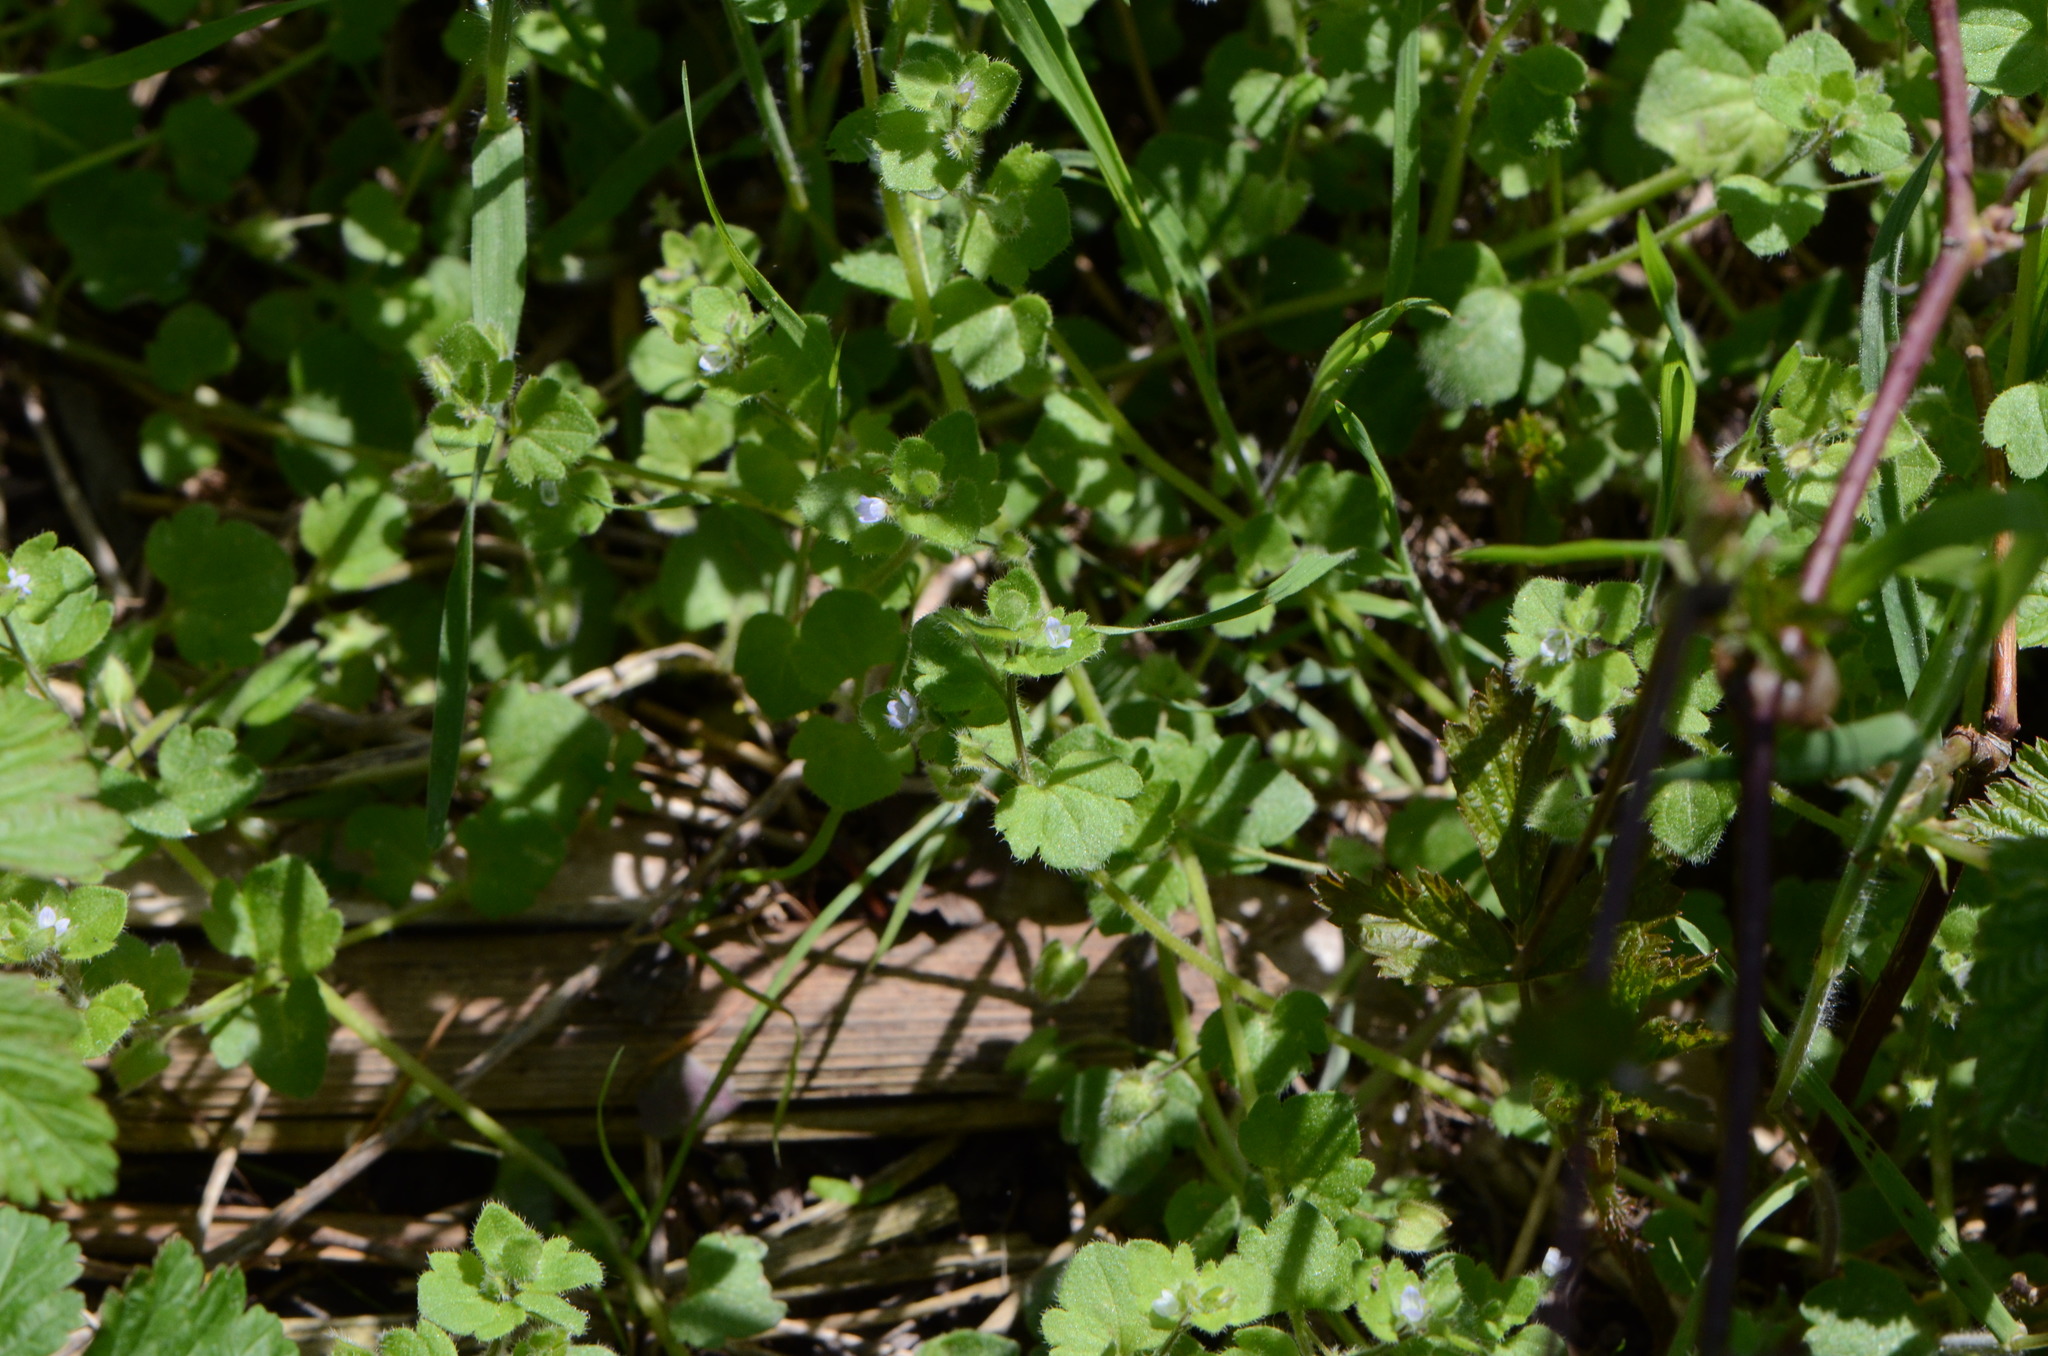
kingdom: Plantae
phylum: Tracheophyta
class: Magnoliopsida
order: Lamiales
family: Plantaginaceae
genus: Veronica
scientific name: Veronica sublobata
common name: False ivy-leaved speedwell
